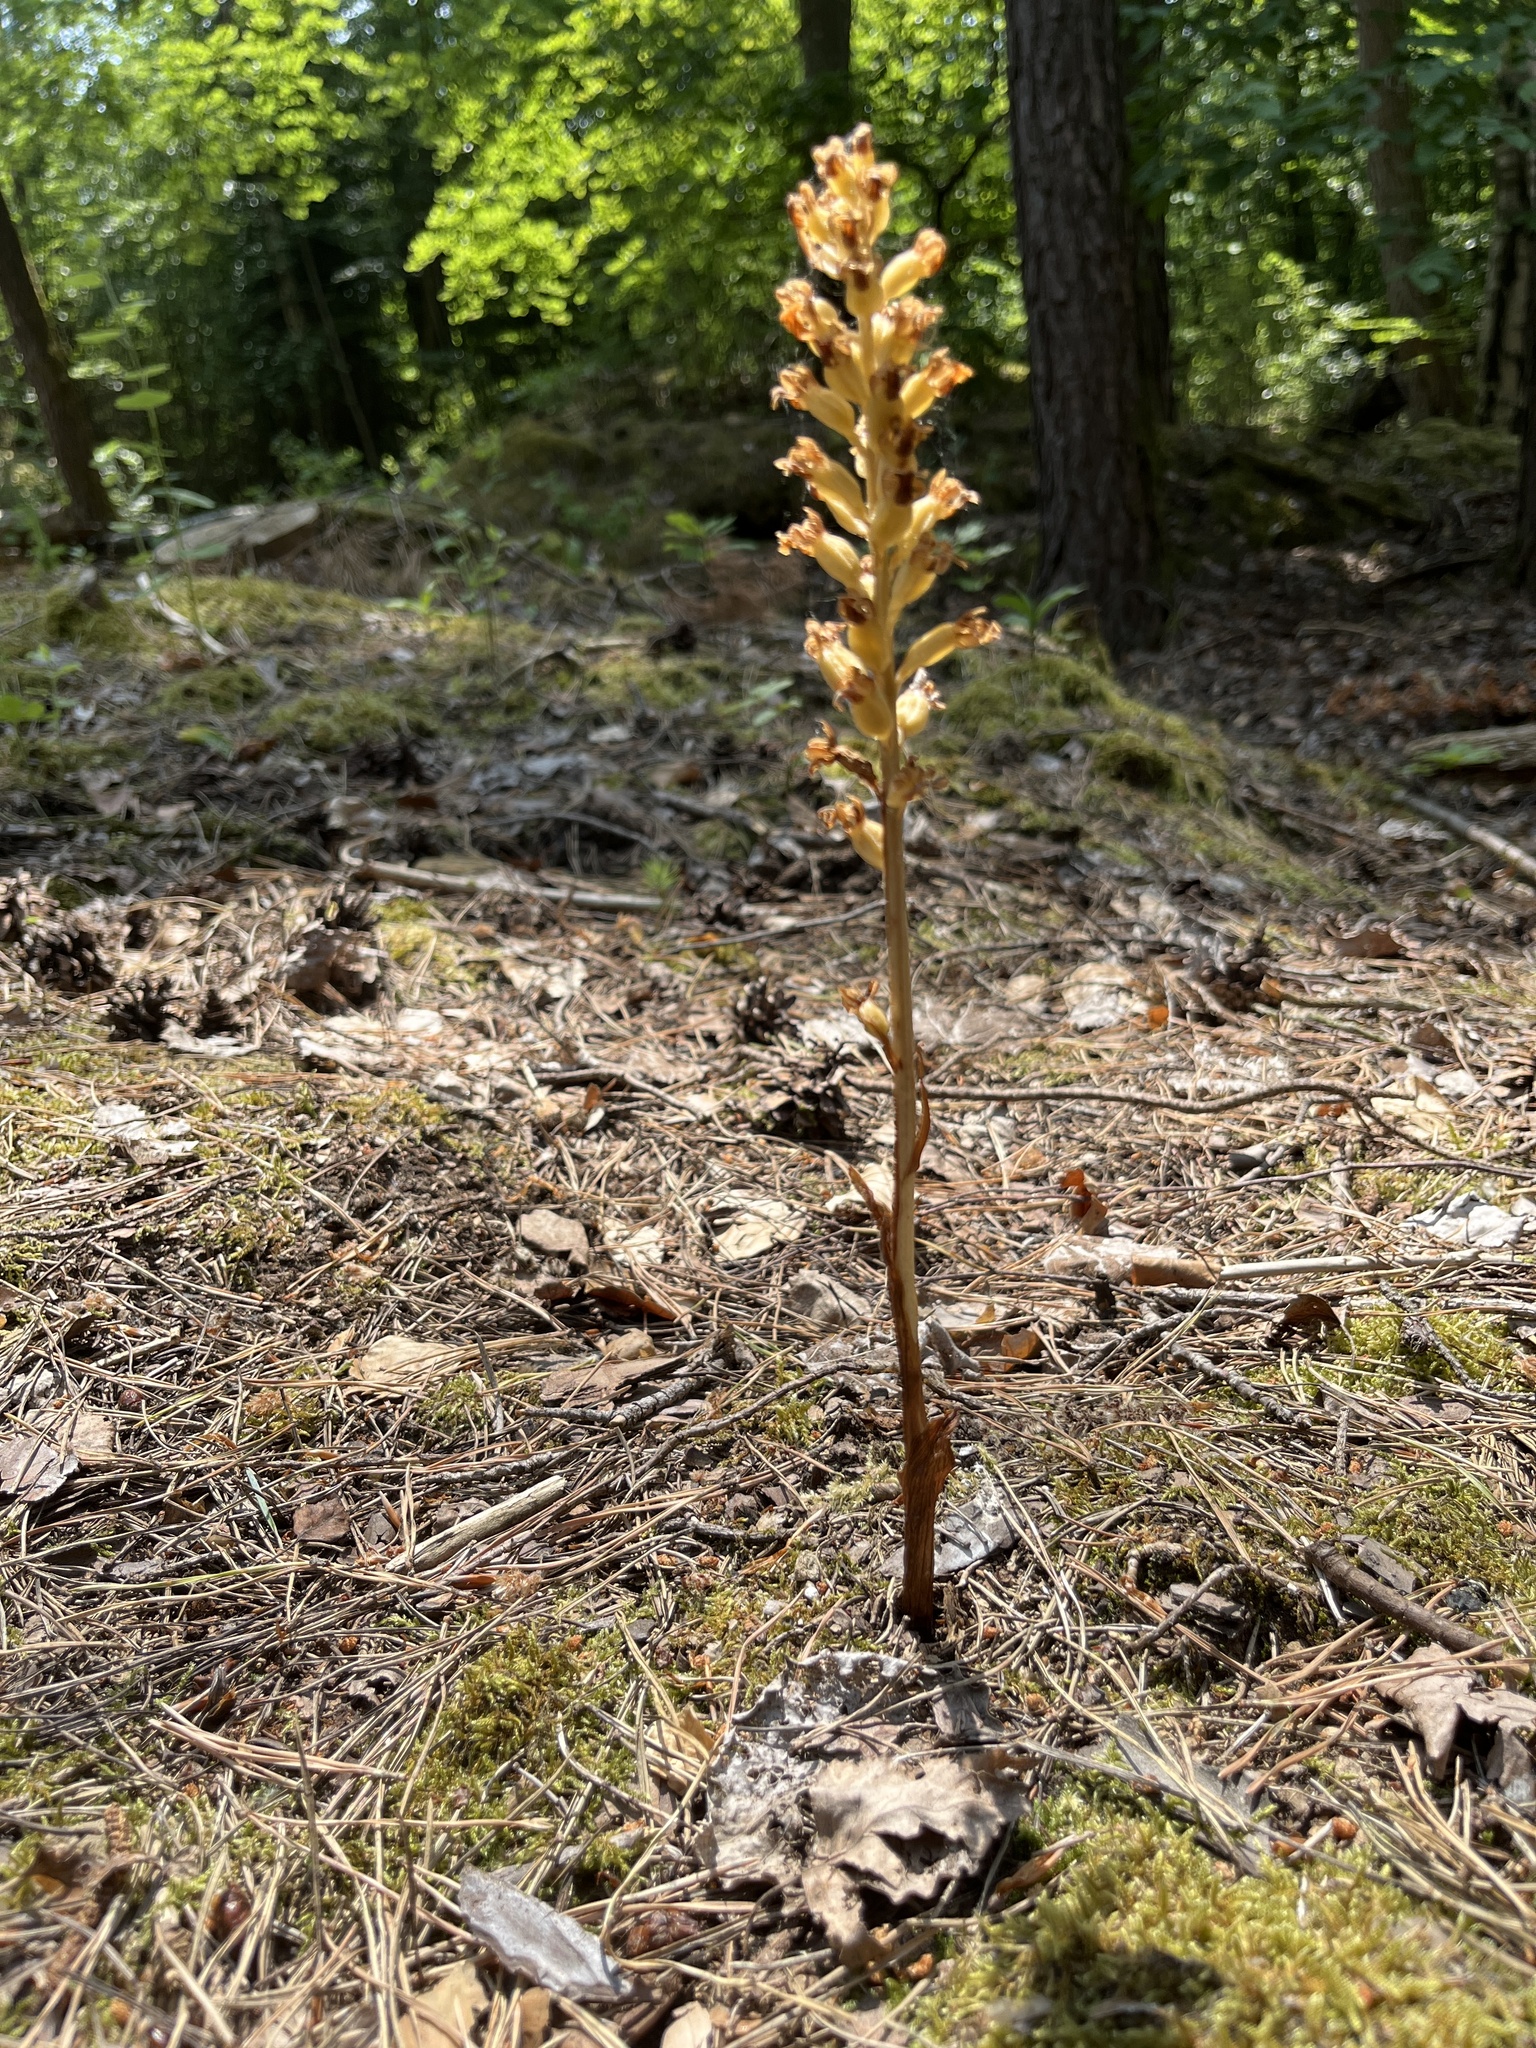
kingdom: Plantae
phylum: Tracheophyta
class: Liliopsida
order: Asparagales
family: Orchidaceae
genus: Neottia
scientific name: Neottia nidus-avis
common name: Bird's-nest orchid
